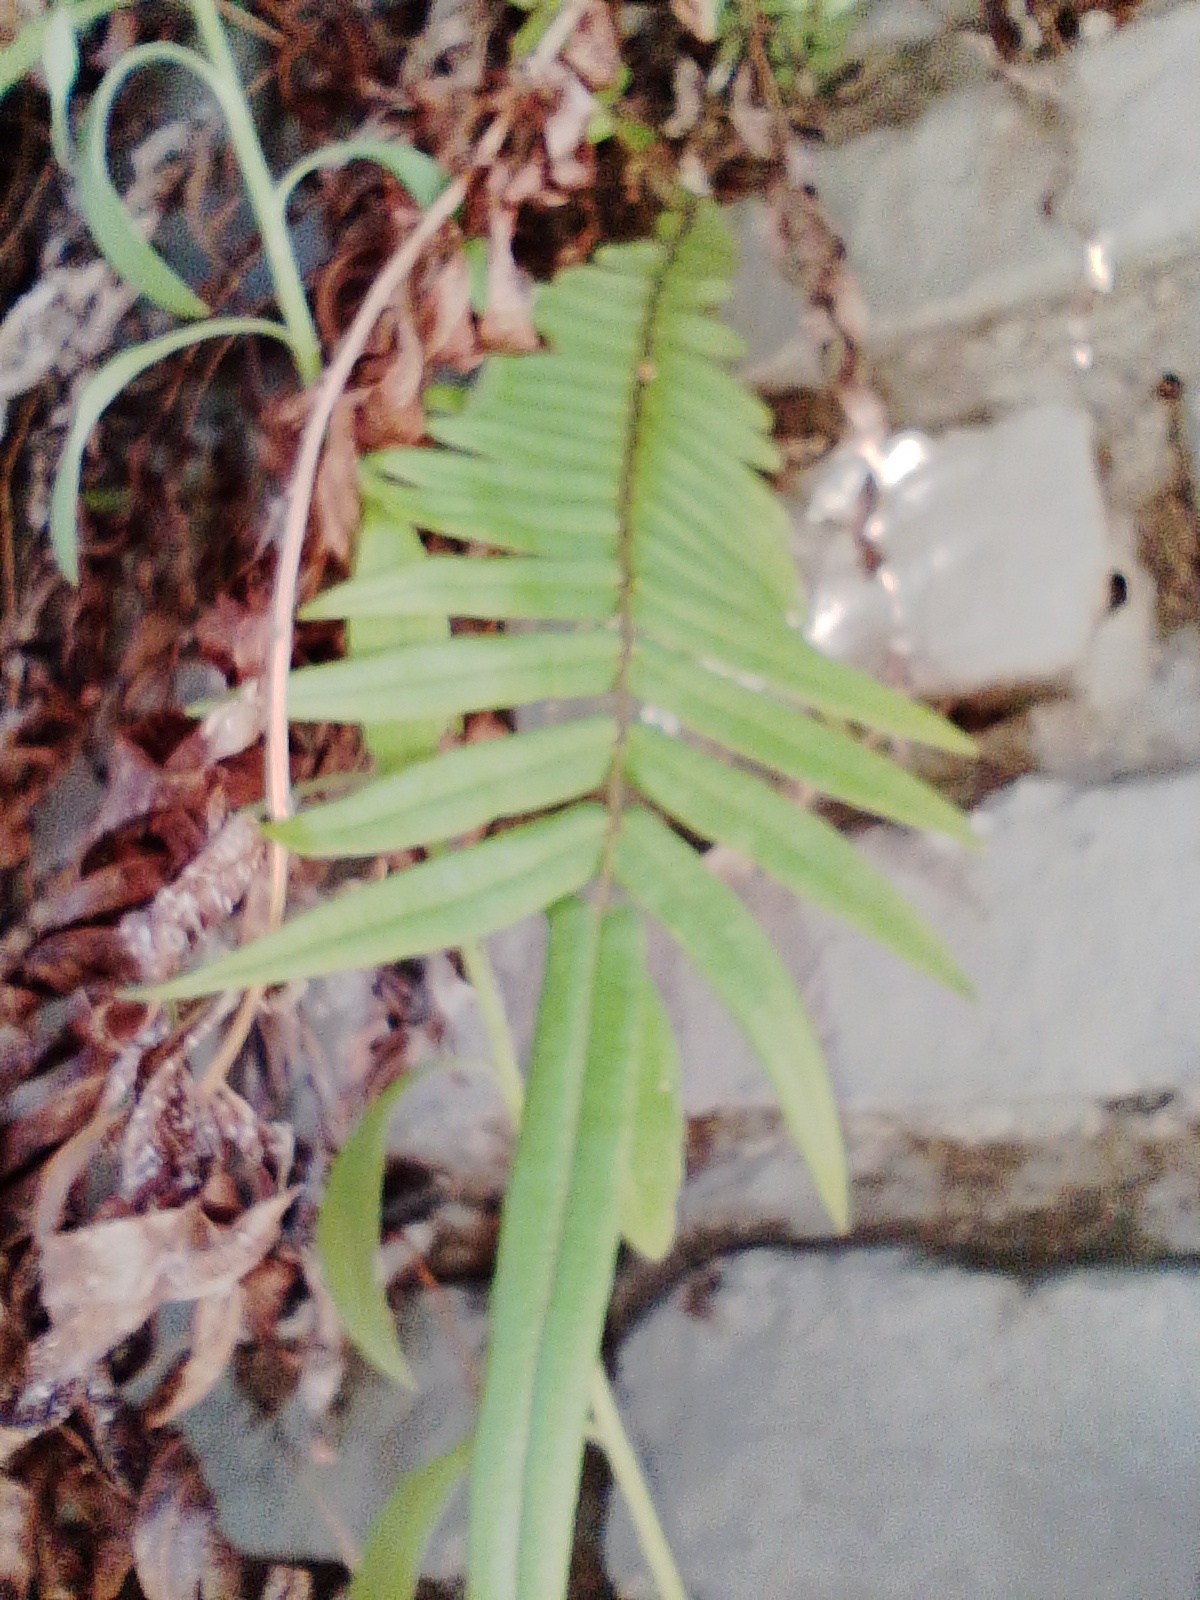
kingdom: Plantae
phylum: Tracheophyta
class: Polypodiopsida
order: Polypodiales
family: Pteridaceae
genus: Pteris
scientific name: Pteris vittata
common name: Ladder brake
